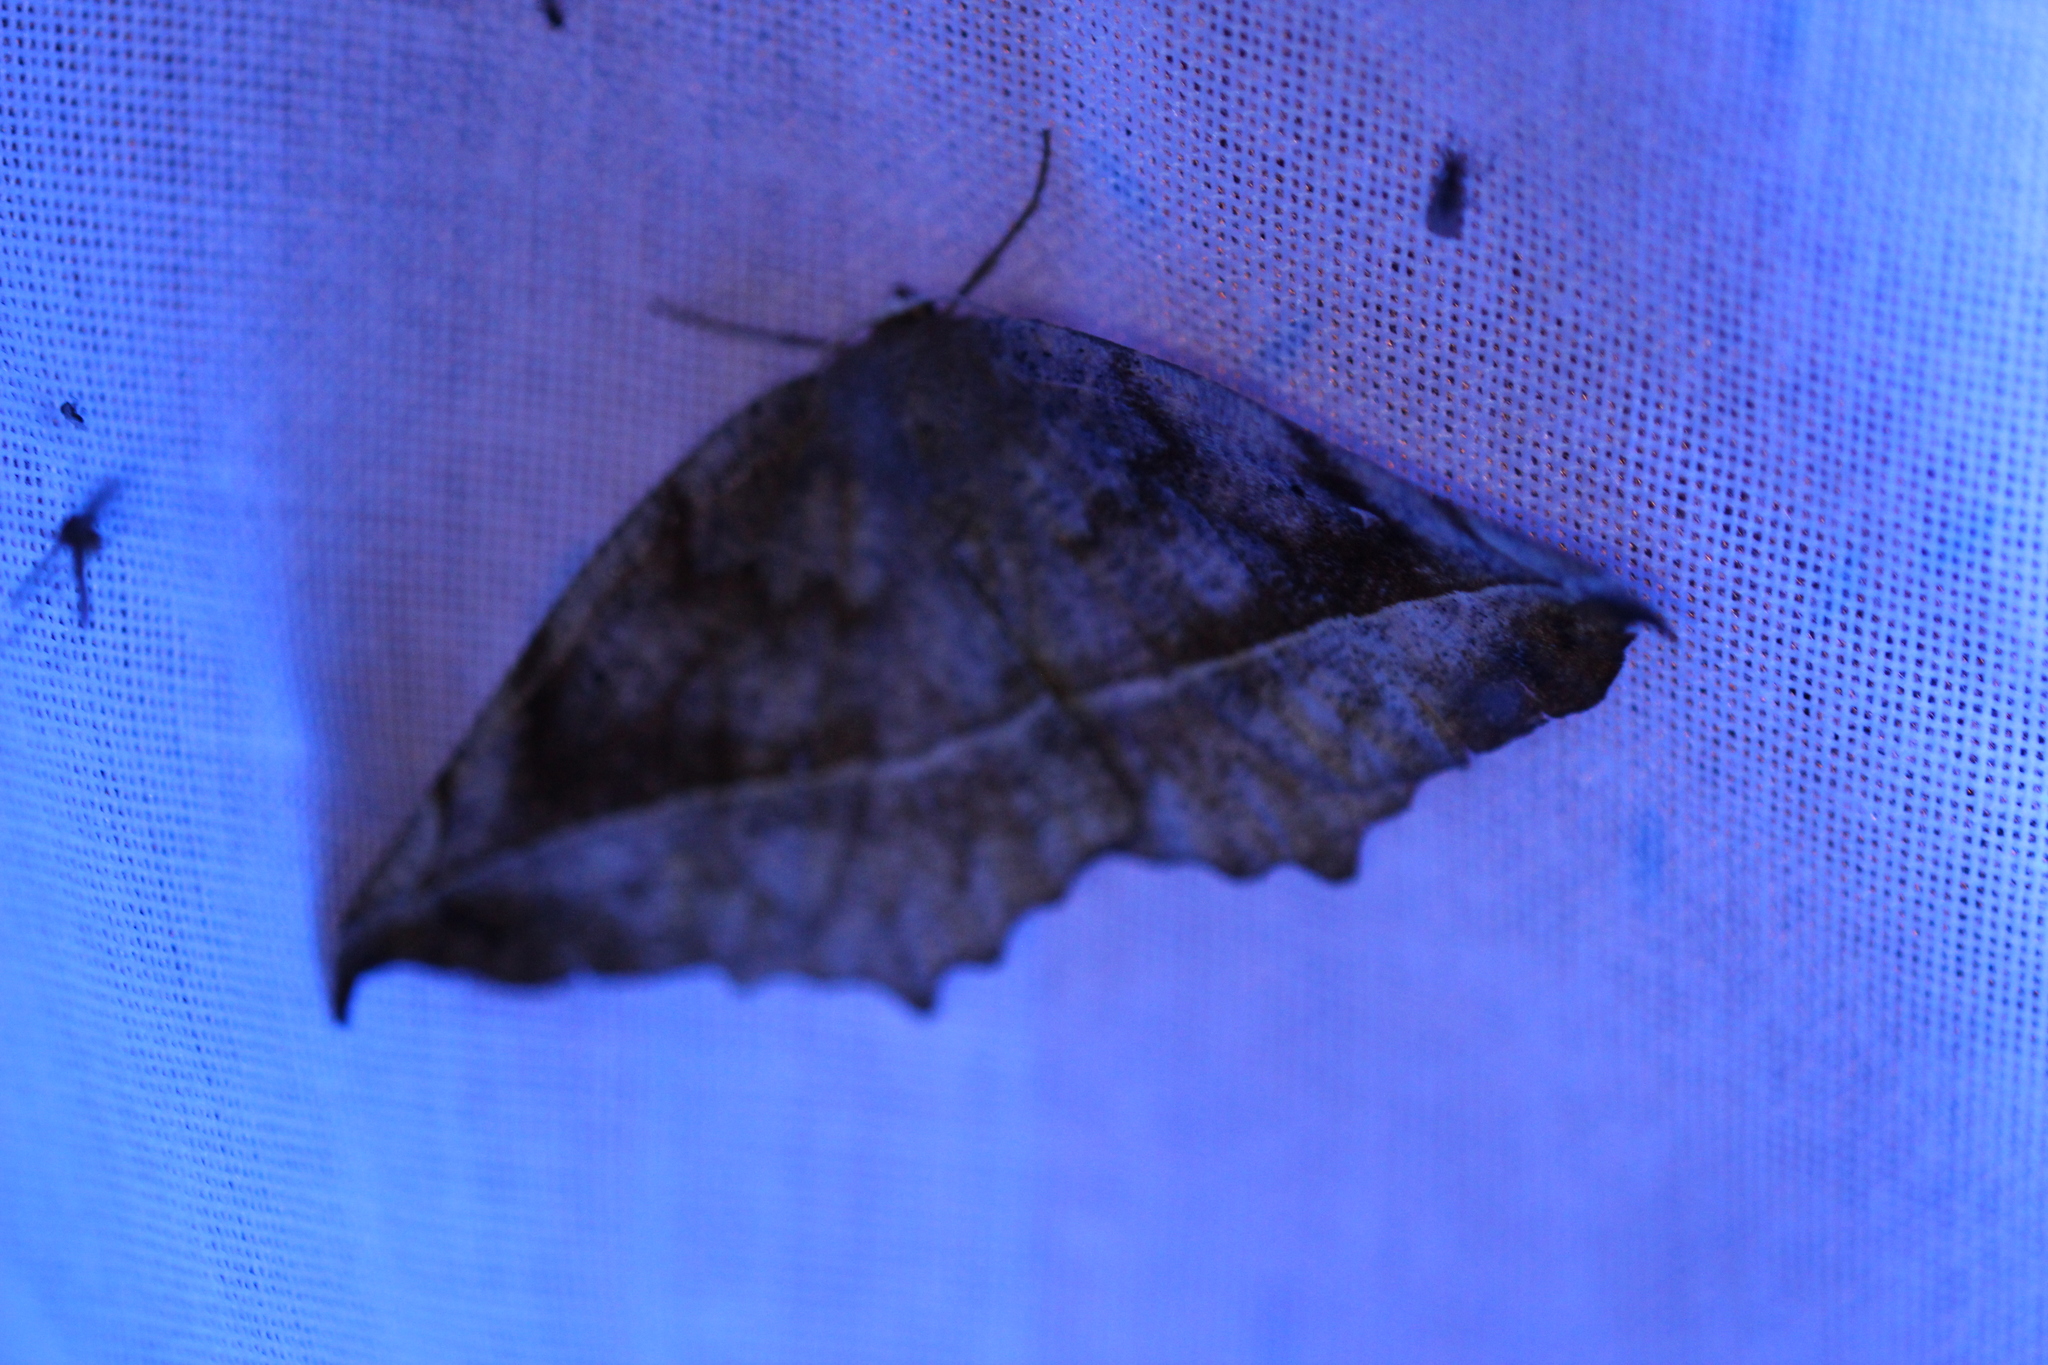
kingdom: Animalia
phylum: Arthropoda
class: Insecta
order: Lepidoptera
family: Geometridae
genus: Eutrapela
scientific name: Eutrapela clemataria
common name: Curved-toothed geometer
